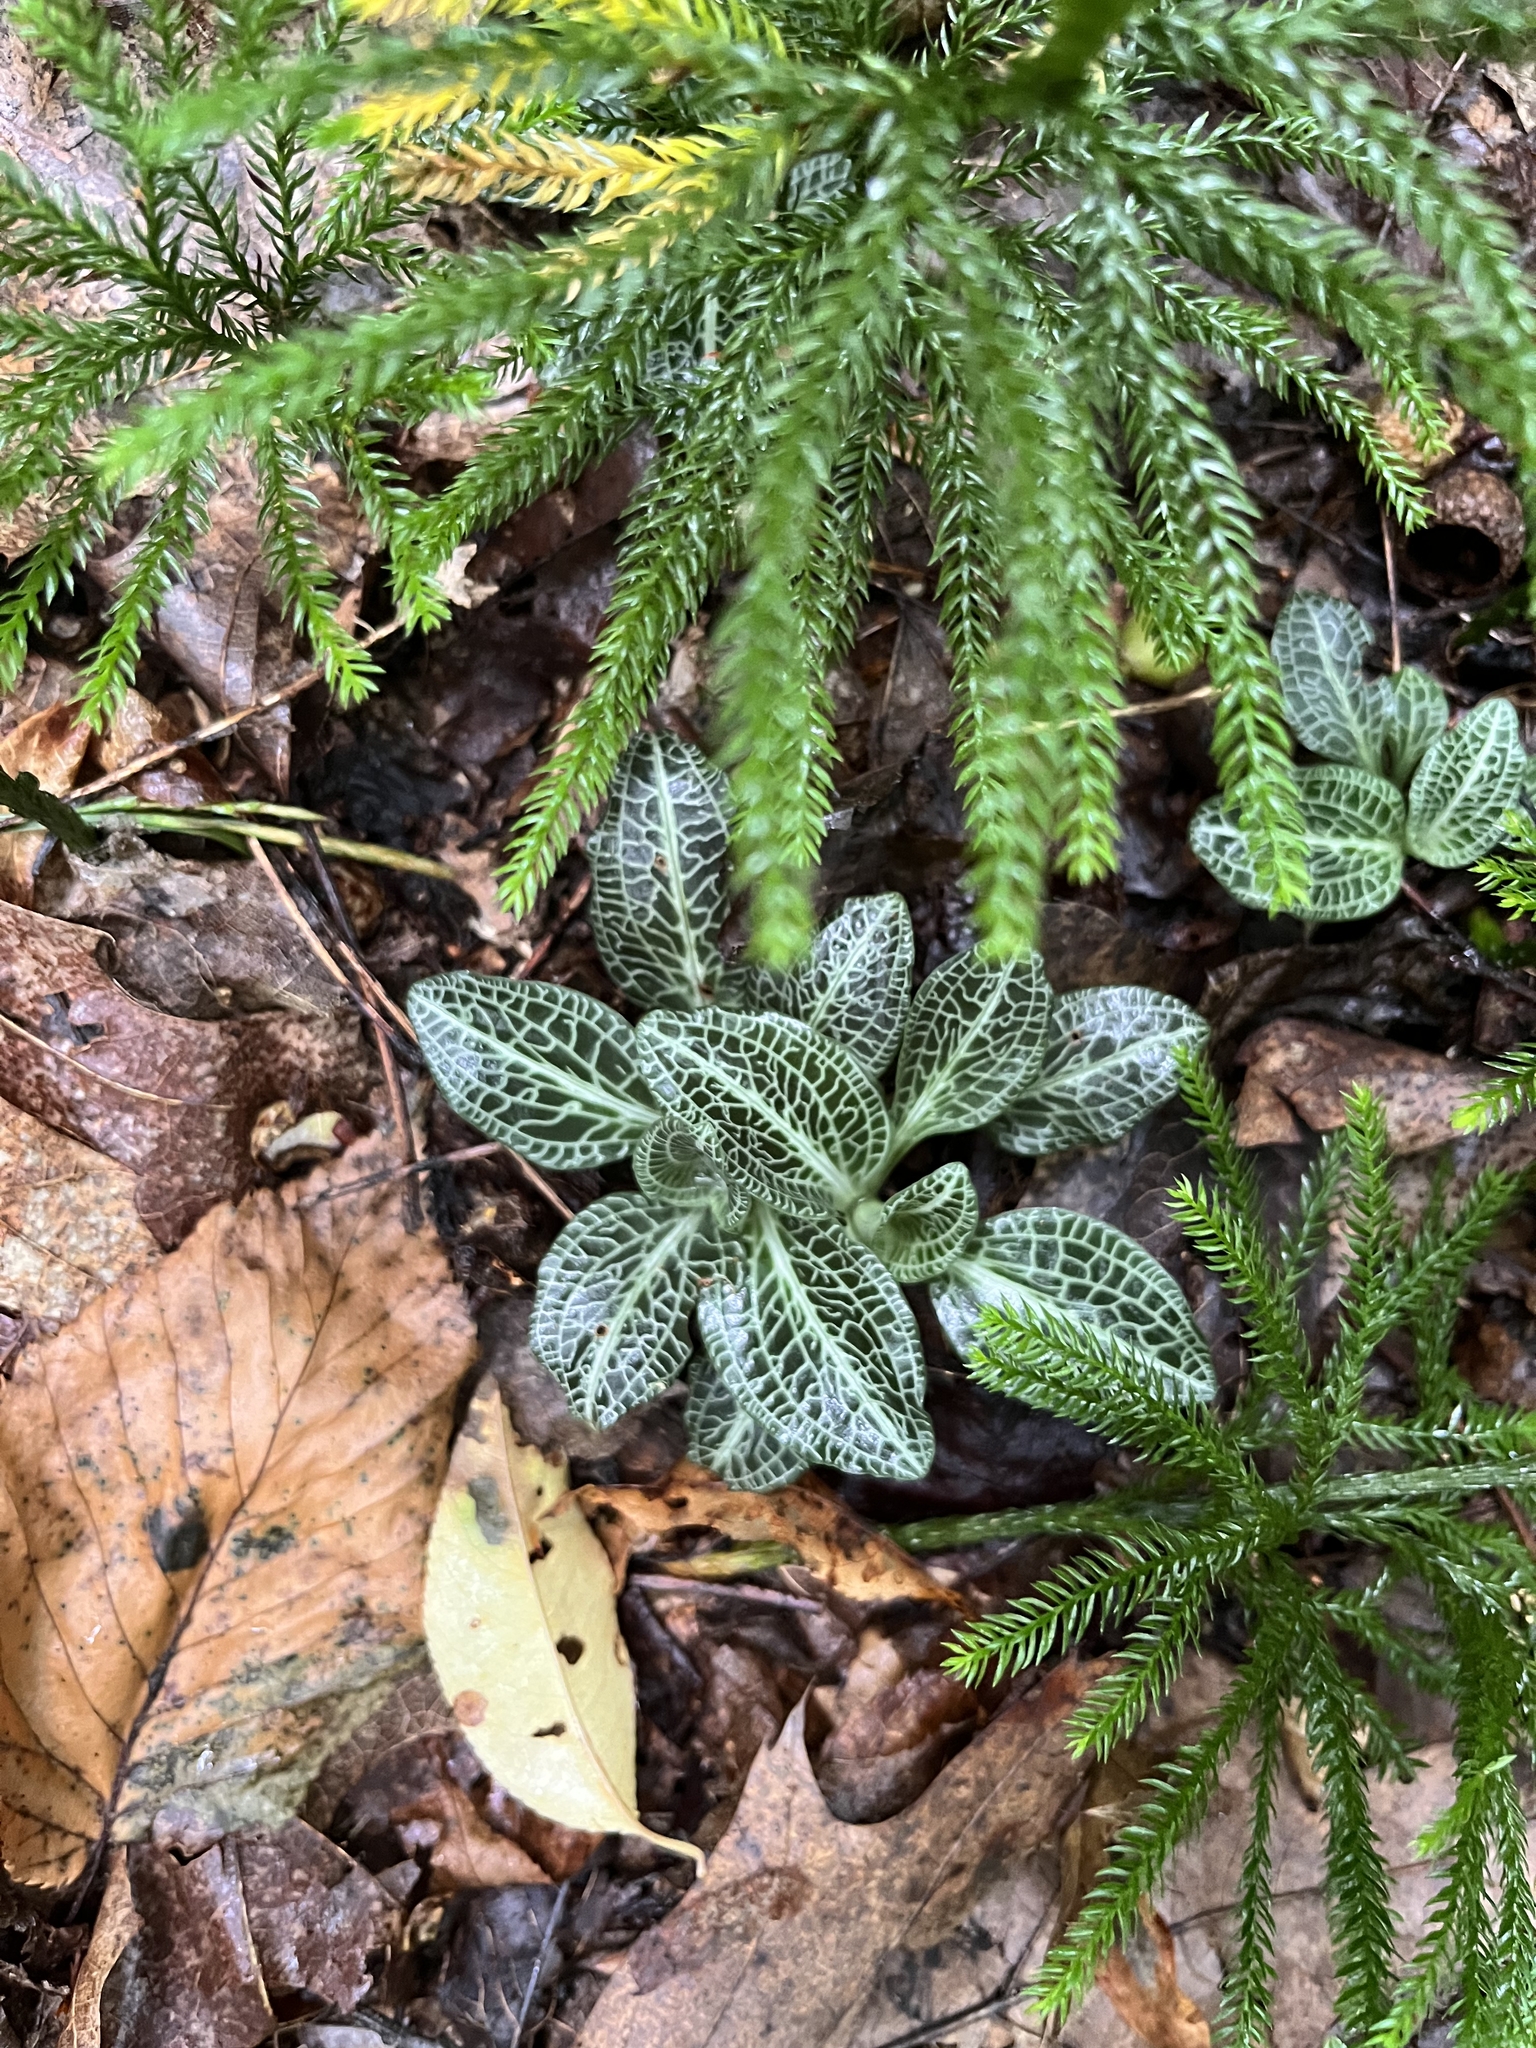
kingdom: Plantae
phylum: Tracheophyta
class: Liliopsida
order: Asparagales
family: Orchidaceae
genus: Goodyera
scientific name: Goodyera pubescens
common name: Downy rattlesnake-plantain
